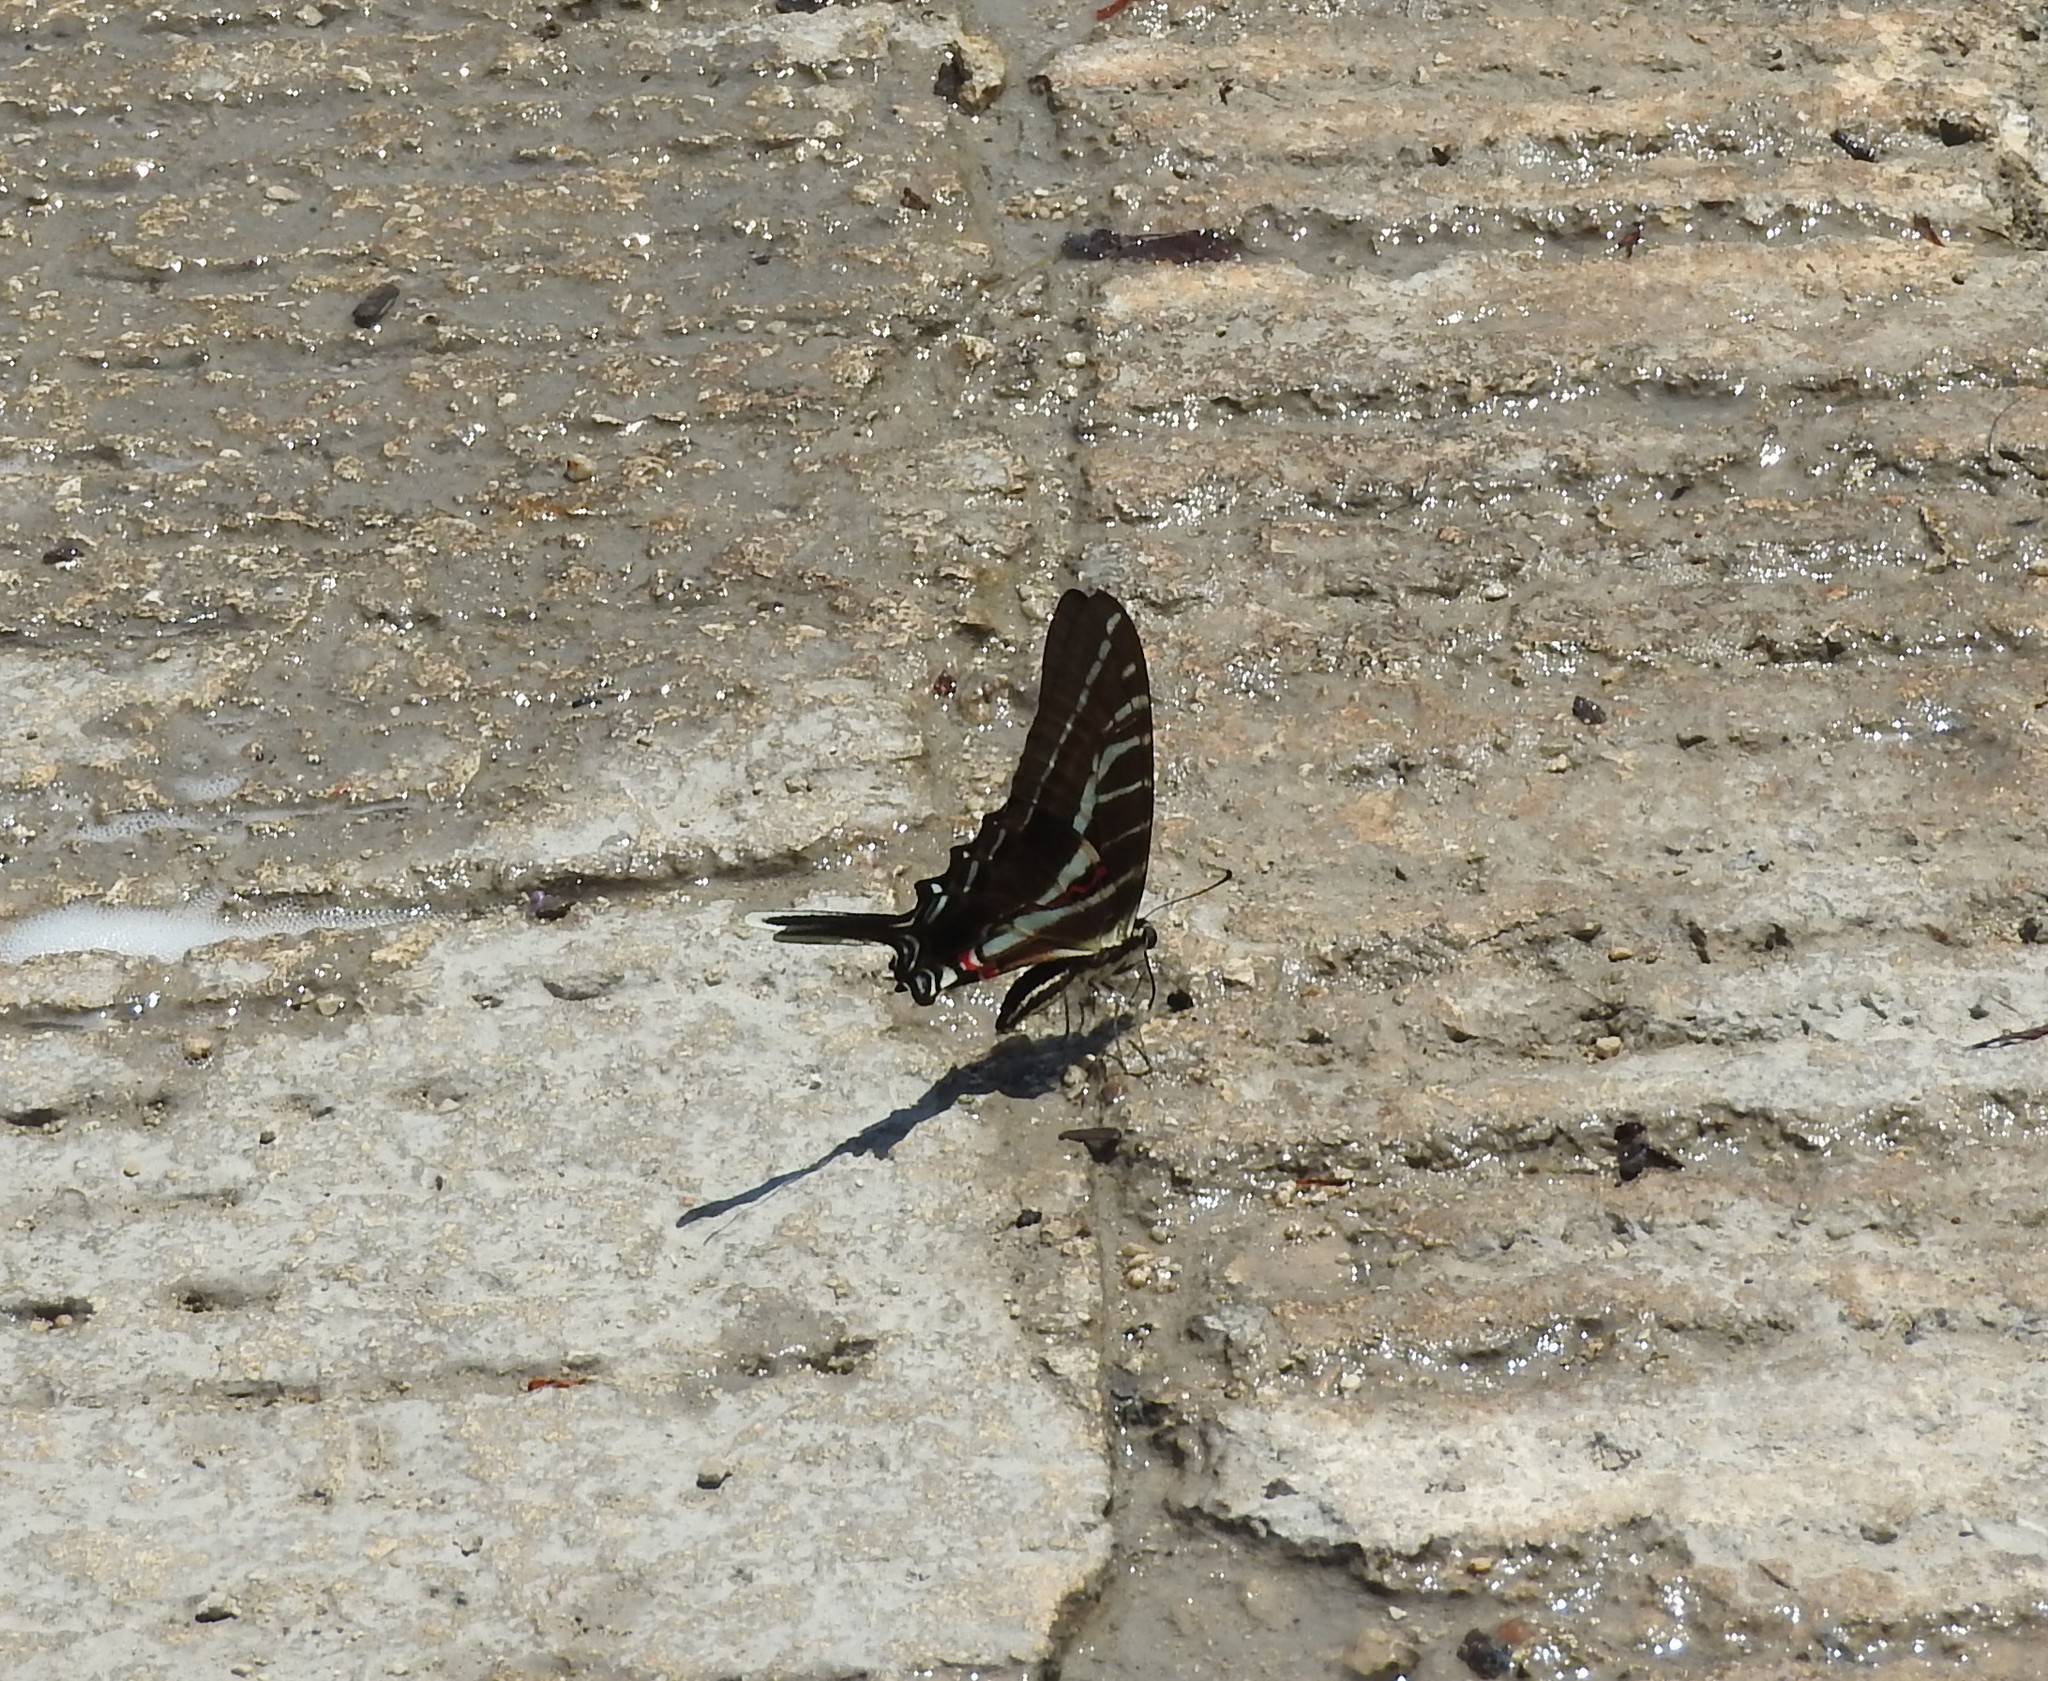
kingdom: Animalia
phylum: Arthropoda
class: Insecta
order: Lepidoptera
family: Papilionidae
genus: Protographium
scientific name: Protographium philolaus
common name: Dark zebra swallowtail
